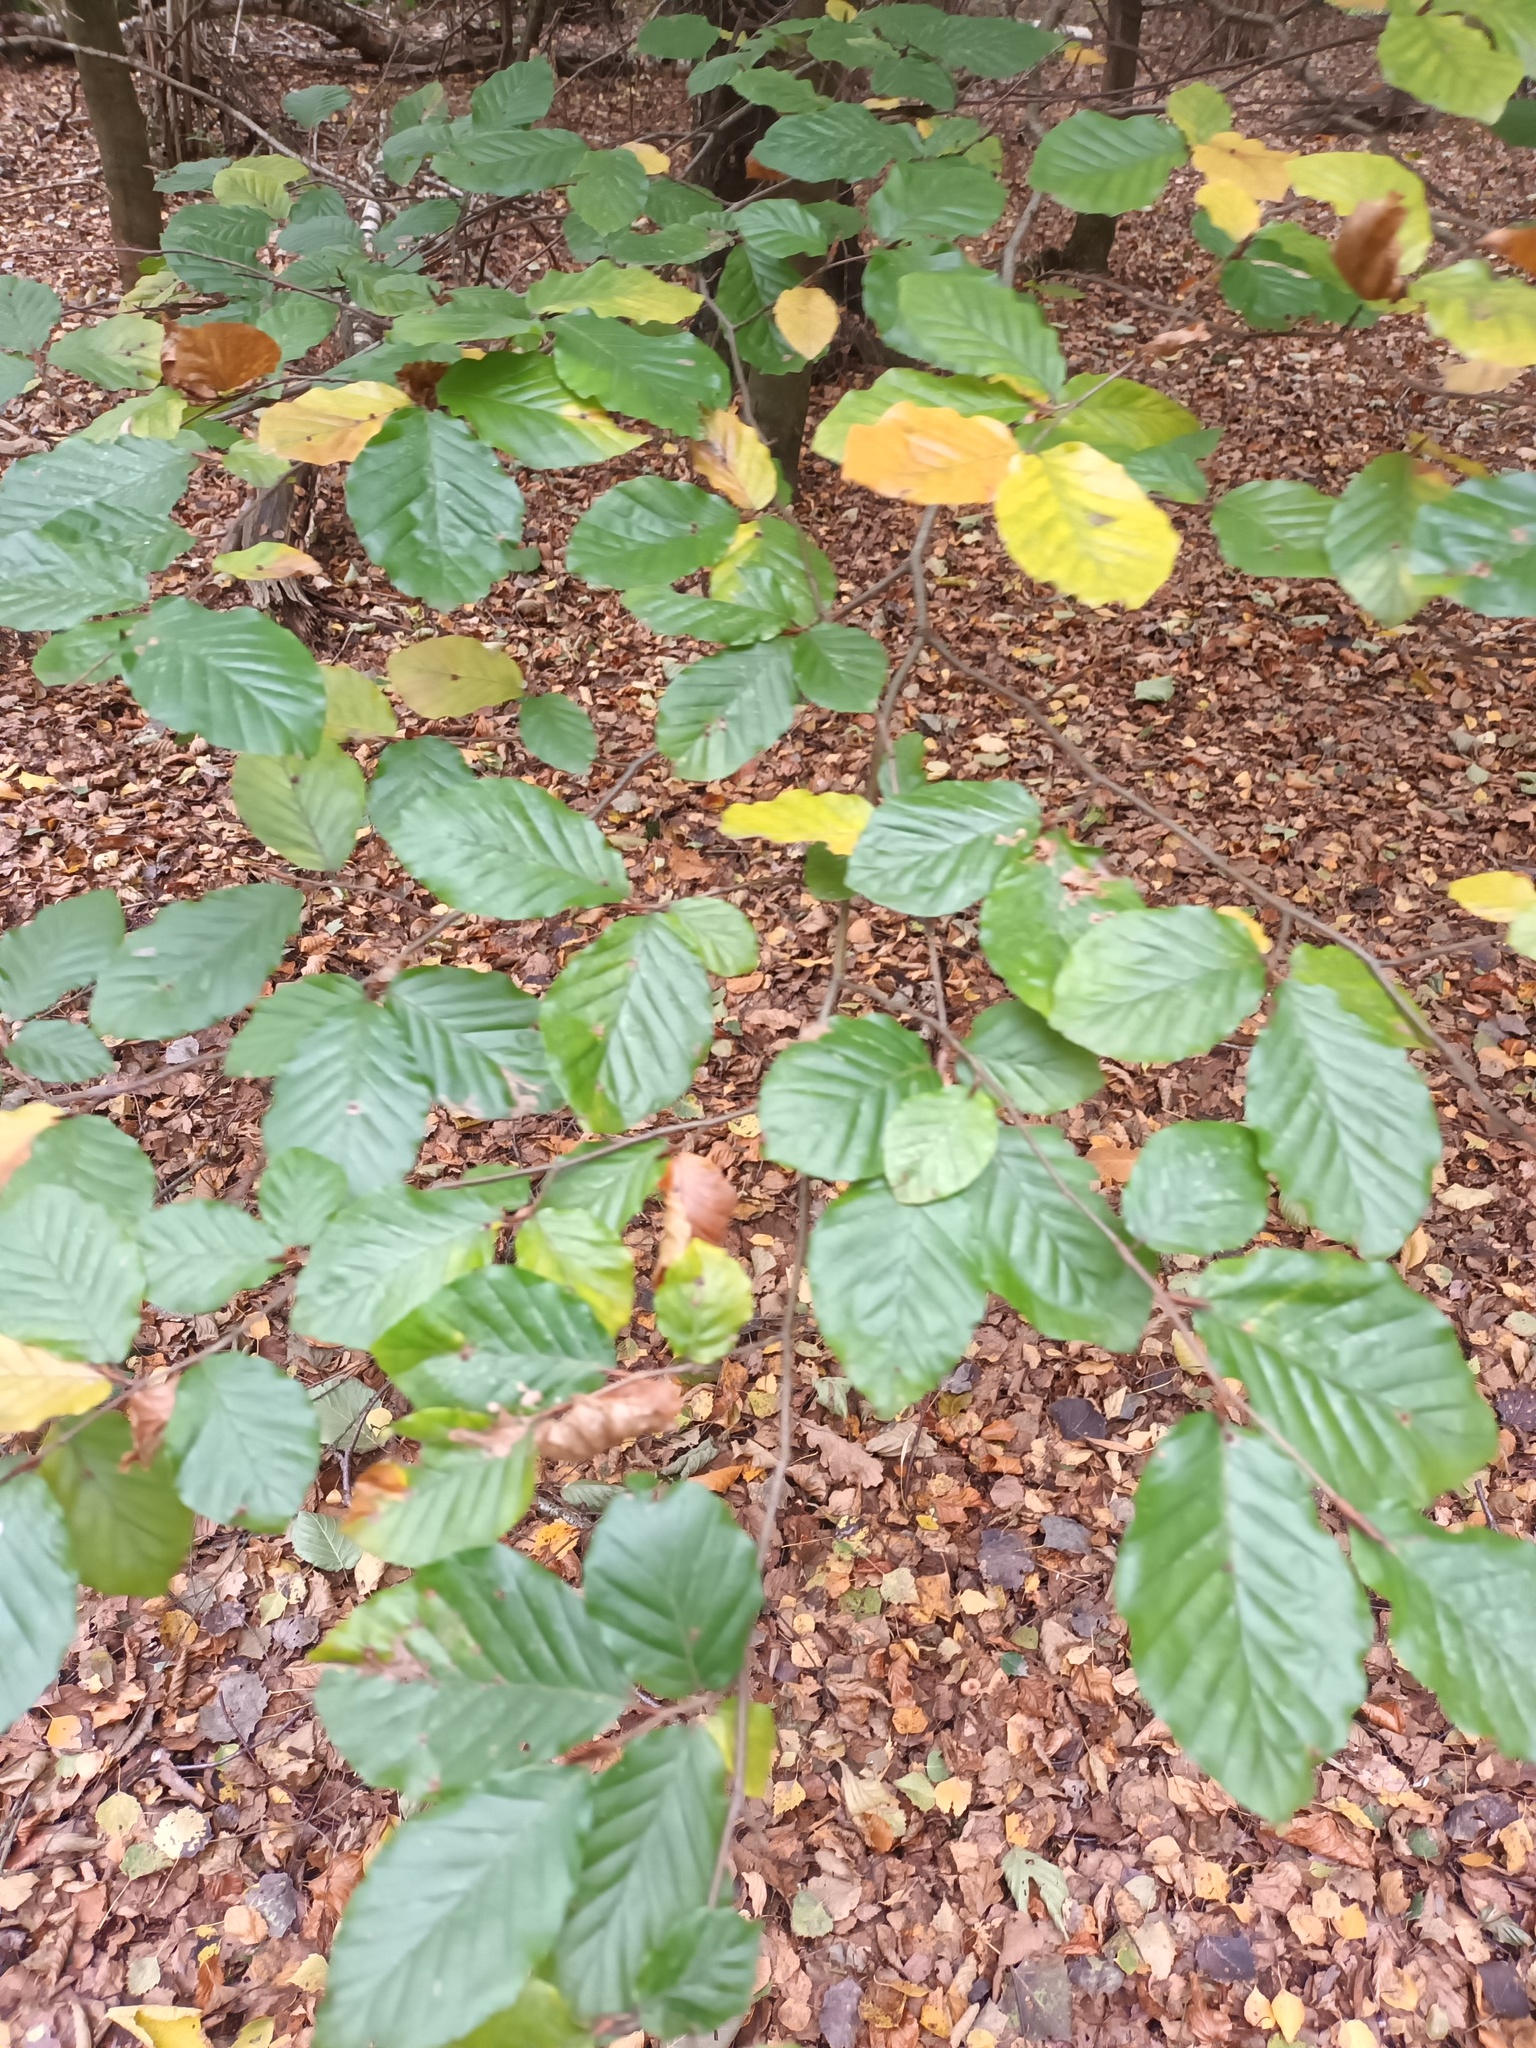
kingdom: Plantae
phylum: Tracheophyta
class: Magnoliopsida
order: Fagales
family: Fagaceae
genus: Fagus
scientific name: Fagus sylvatica
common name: Beech
